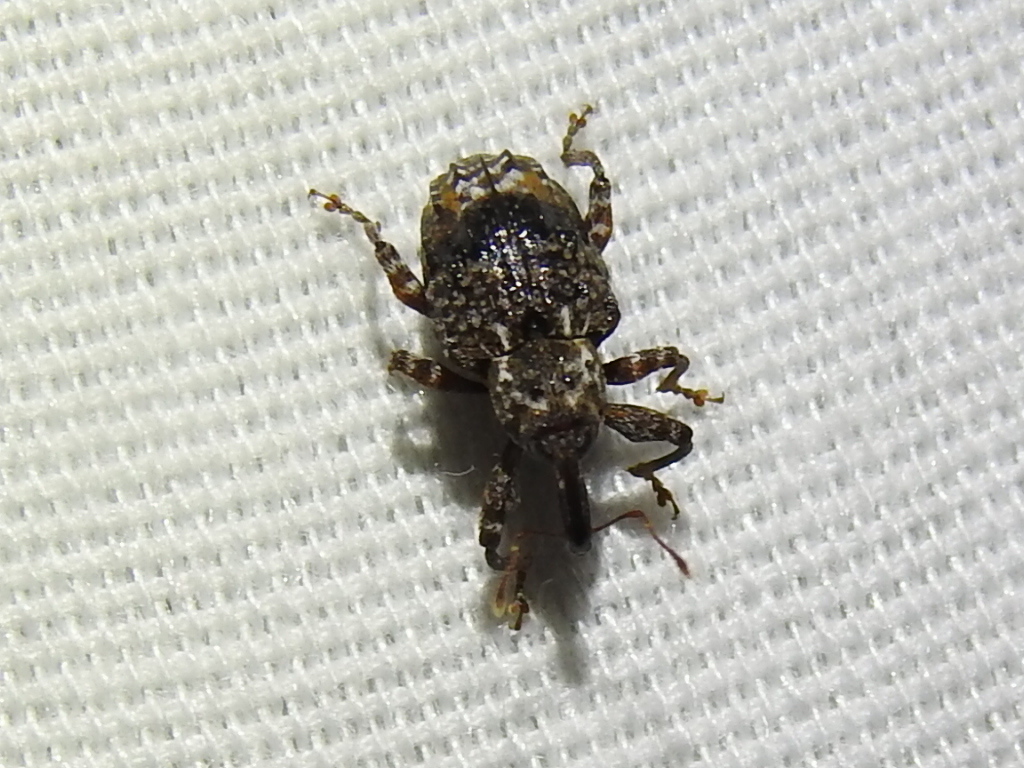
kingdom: Animalia
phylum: Arthropoda
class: Insecta
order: Coleoptera
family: Curculionidae
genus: Conotrachelus
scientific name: Conotrachelus nenuphar
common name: Plum curculio
